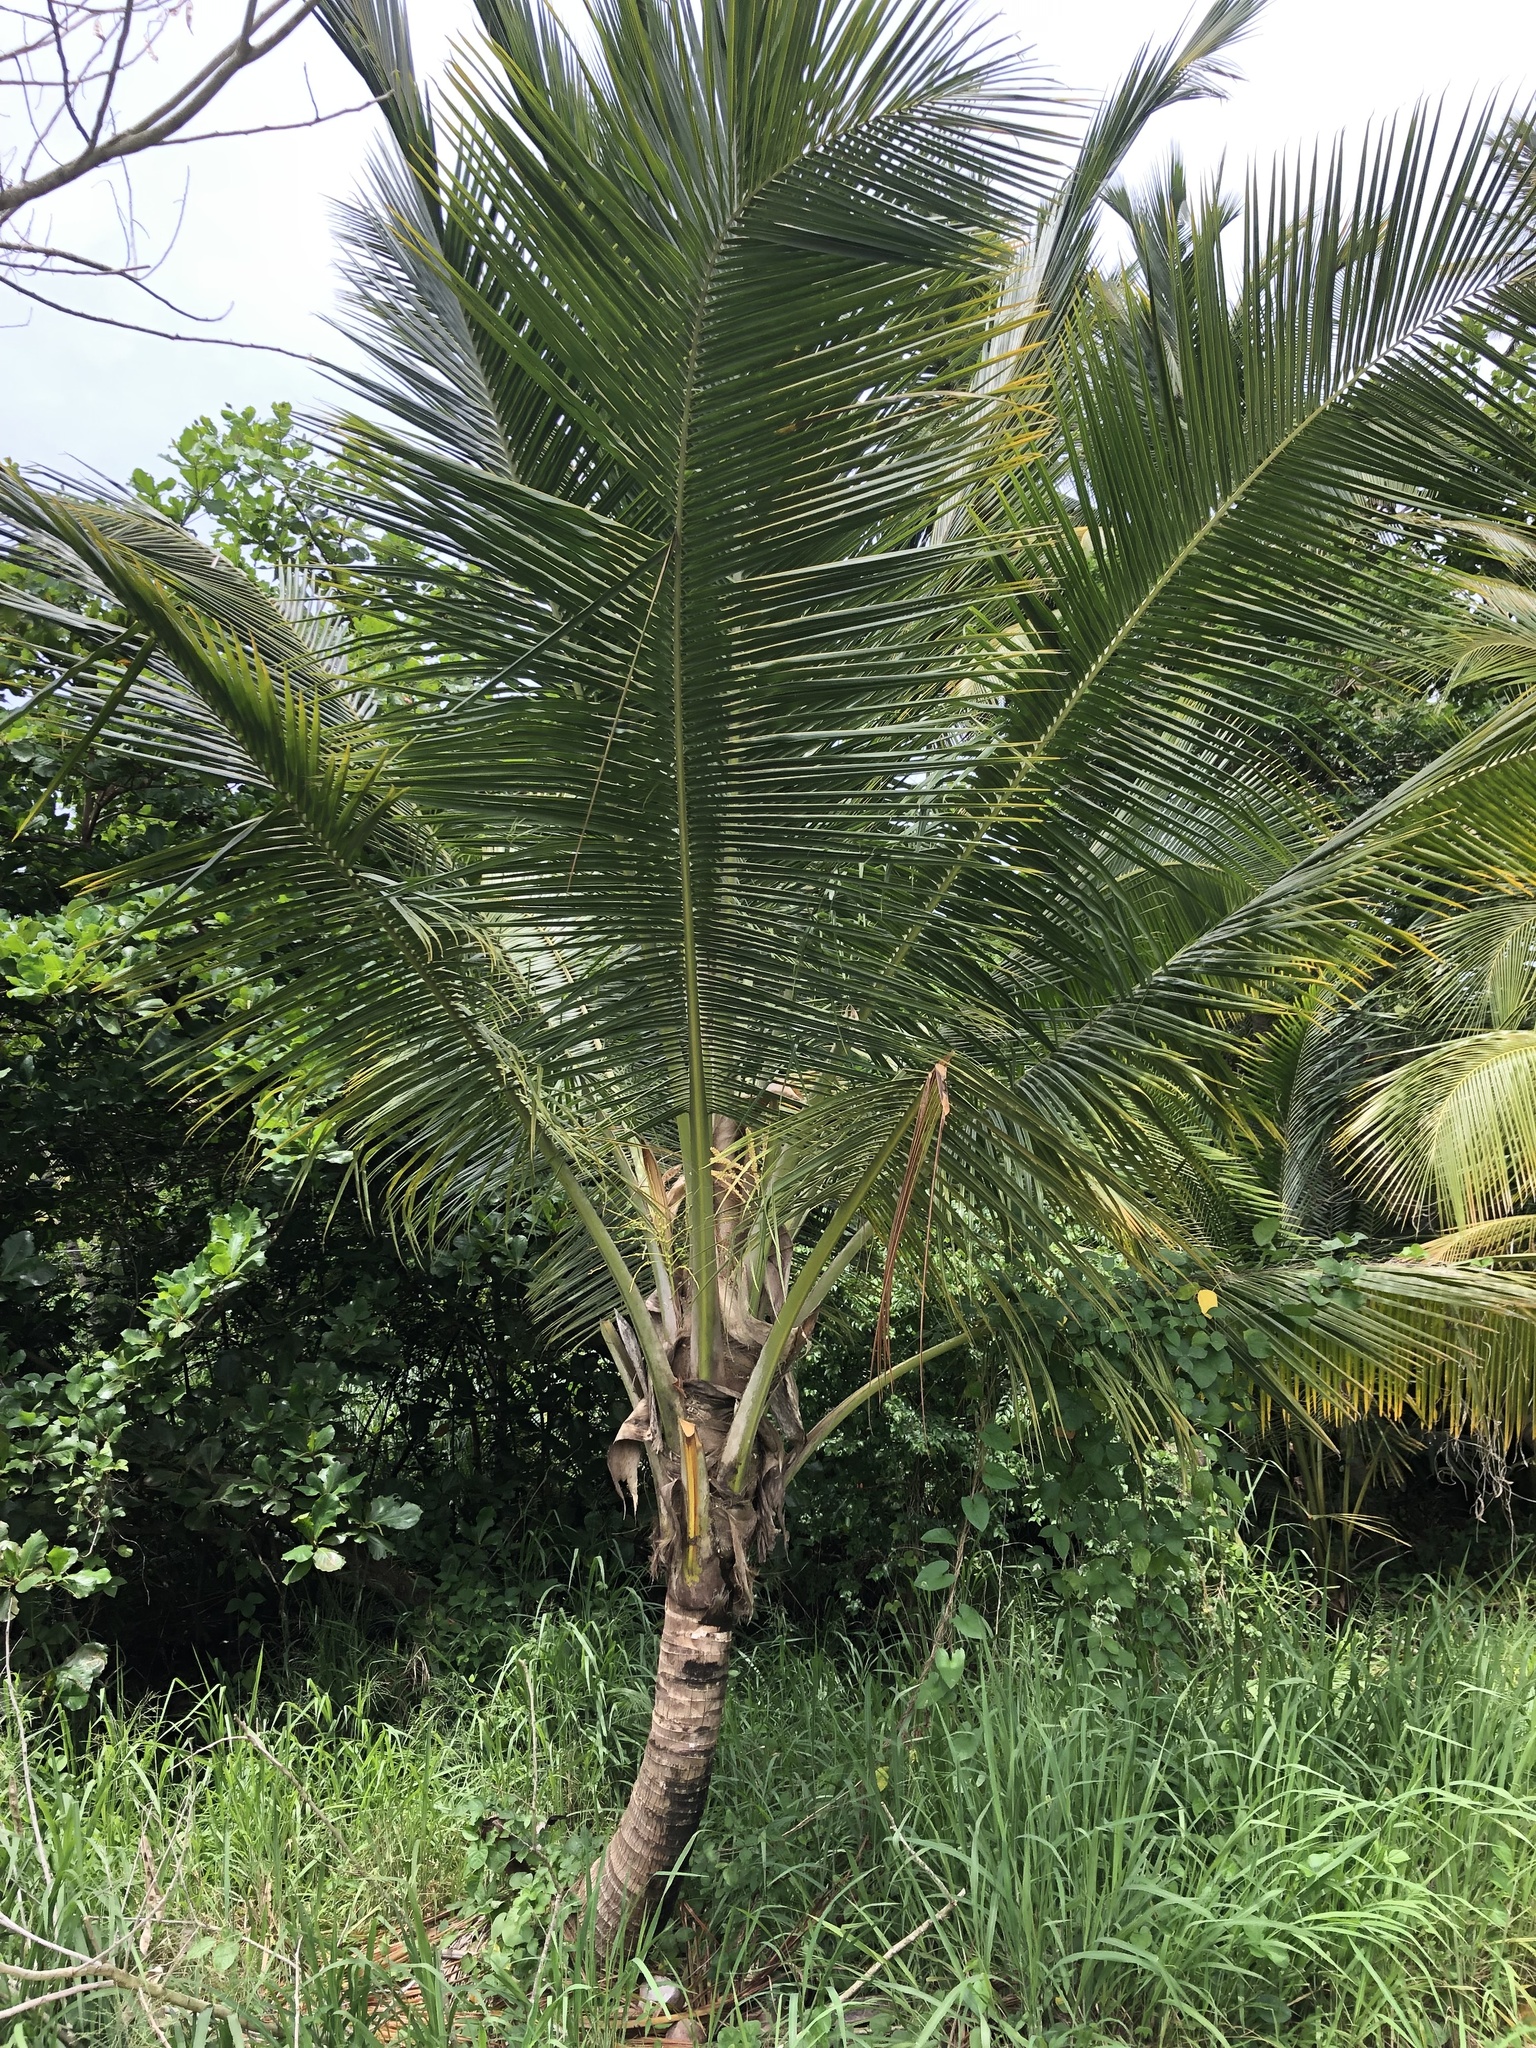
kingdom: Plantae
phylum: Tracheophyta
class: Liliopsida
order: Arecales
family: Arecaceae
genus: Cocos
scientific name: Cocos nucifera
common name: Coconut palm
